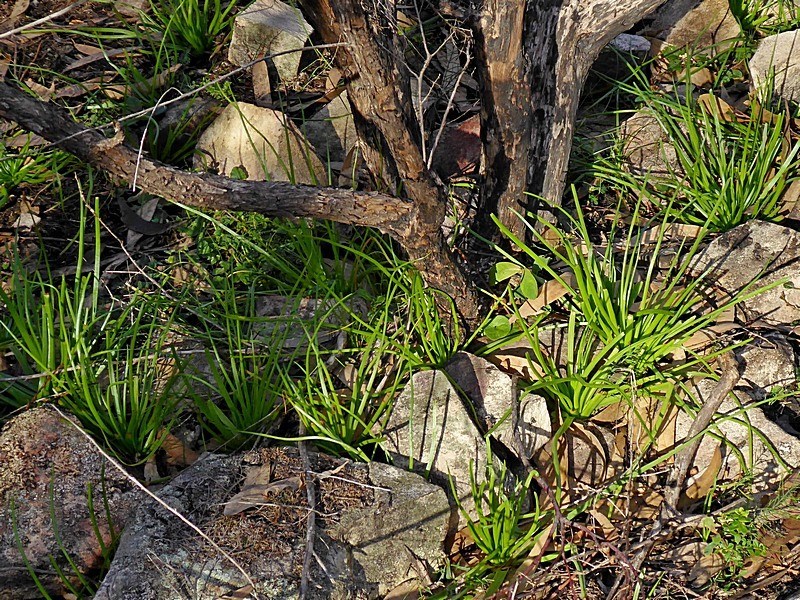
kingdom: Plantae
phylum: Tracheophyta
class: Liliopsida
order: Asparagales
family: Asphodelaceae
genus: Bulbine
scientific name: Bulbine semibarbata
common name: Leek lily
